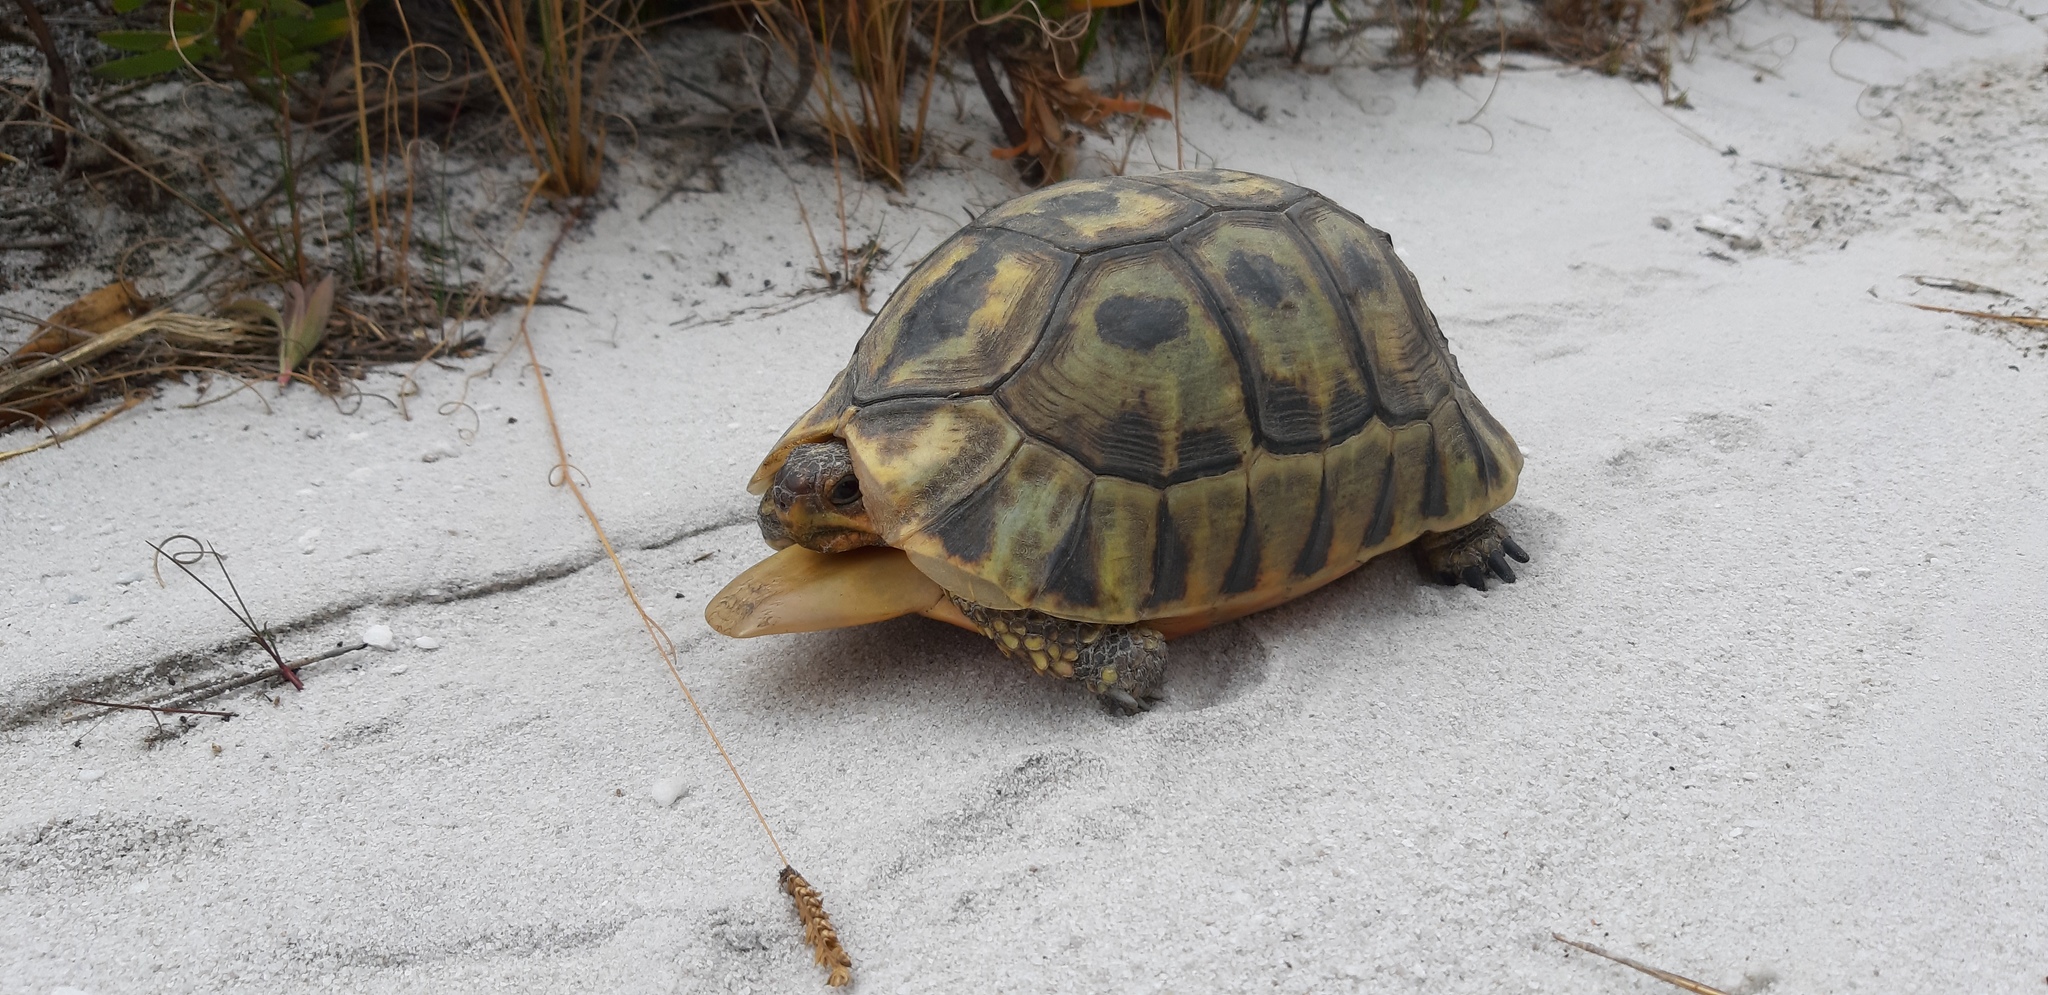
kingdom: Animalia
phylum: Chordata
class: Testudines
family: Testudinidae
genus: Chersina
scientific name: Chersina angulata
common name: South african bowsprit tortoise
